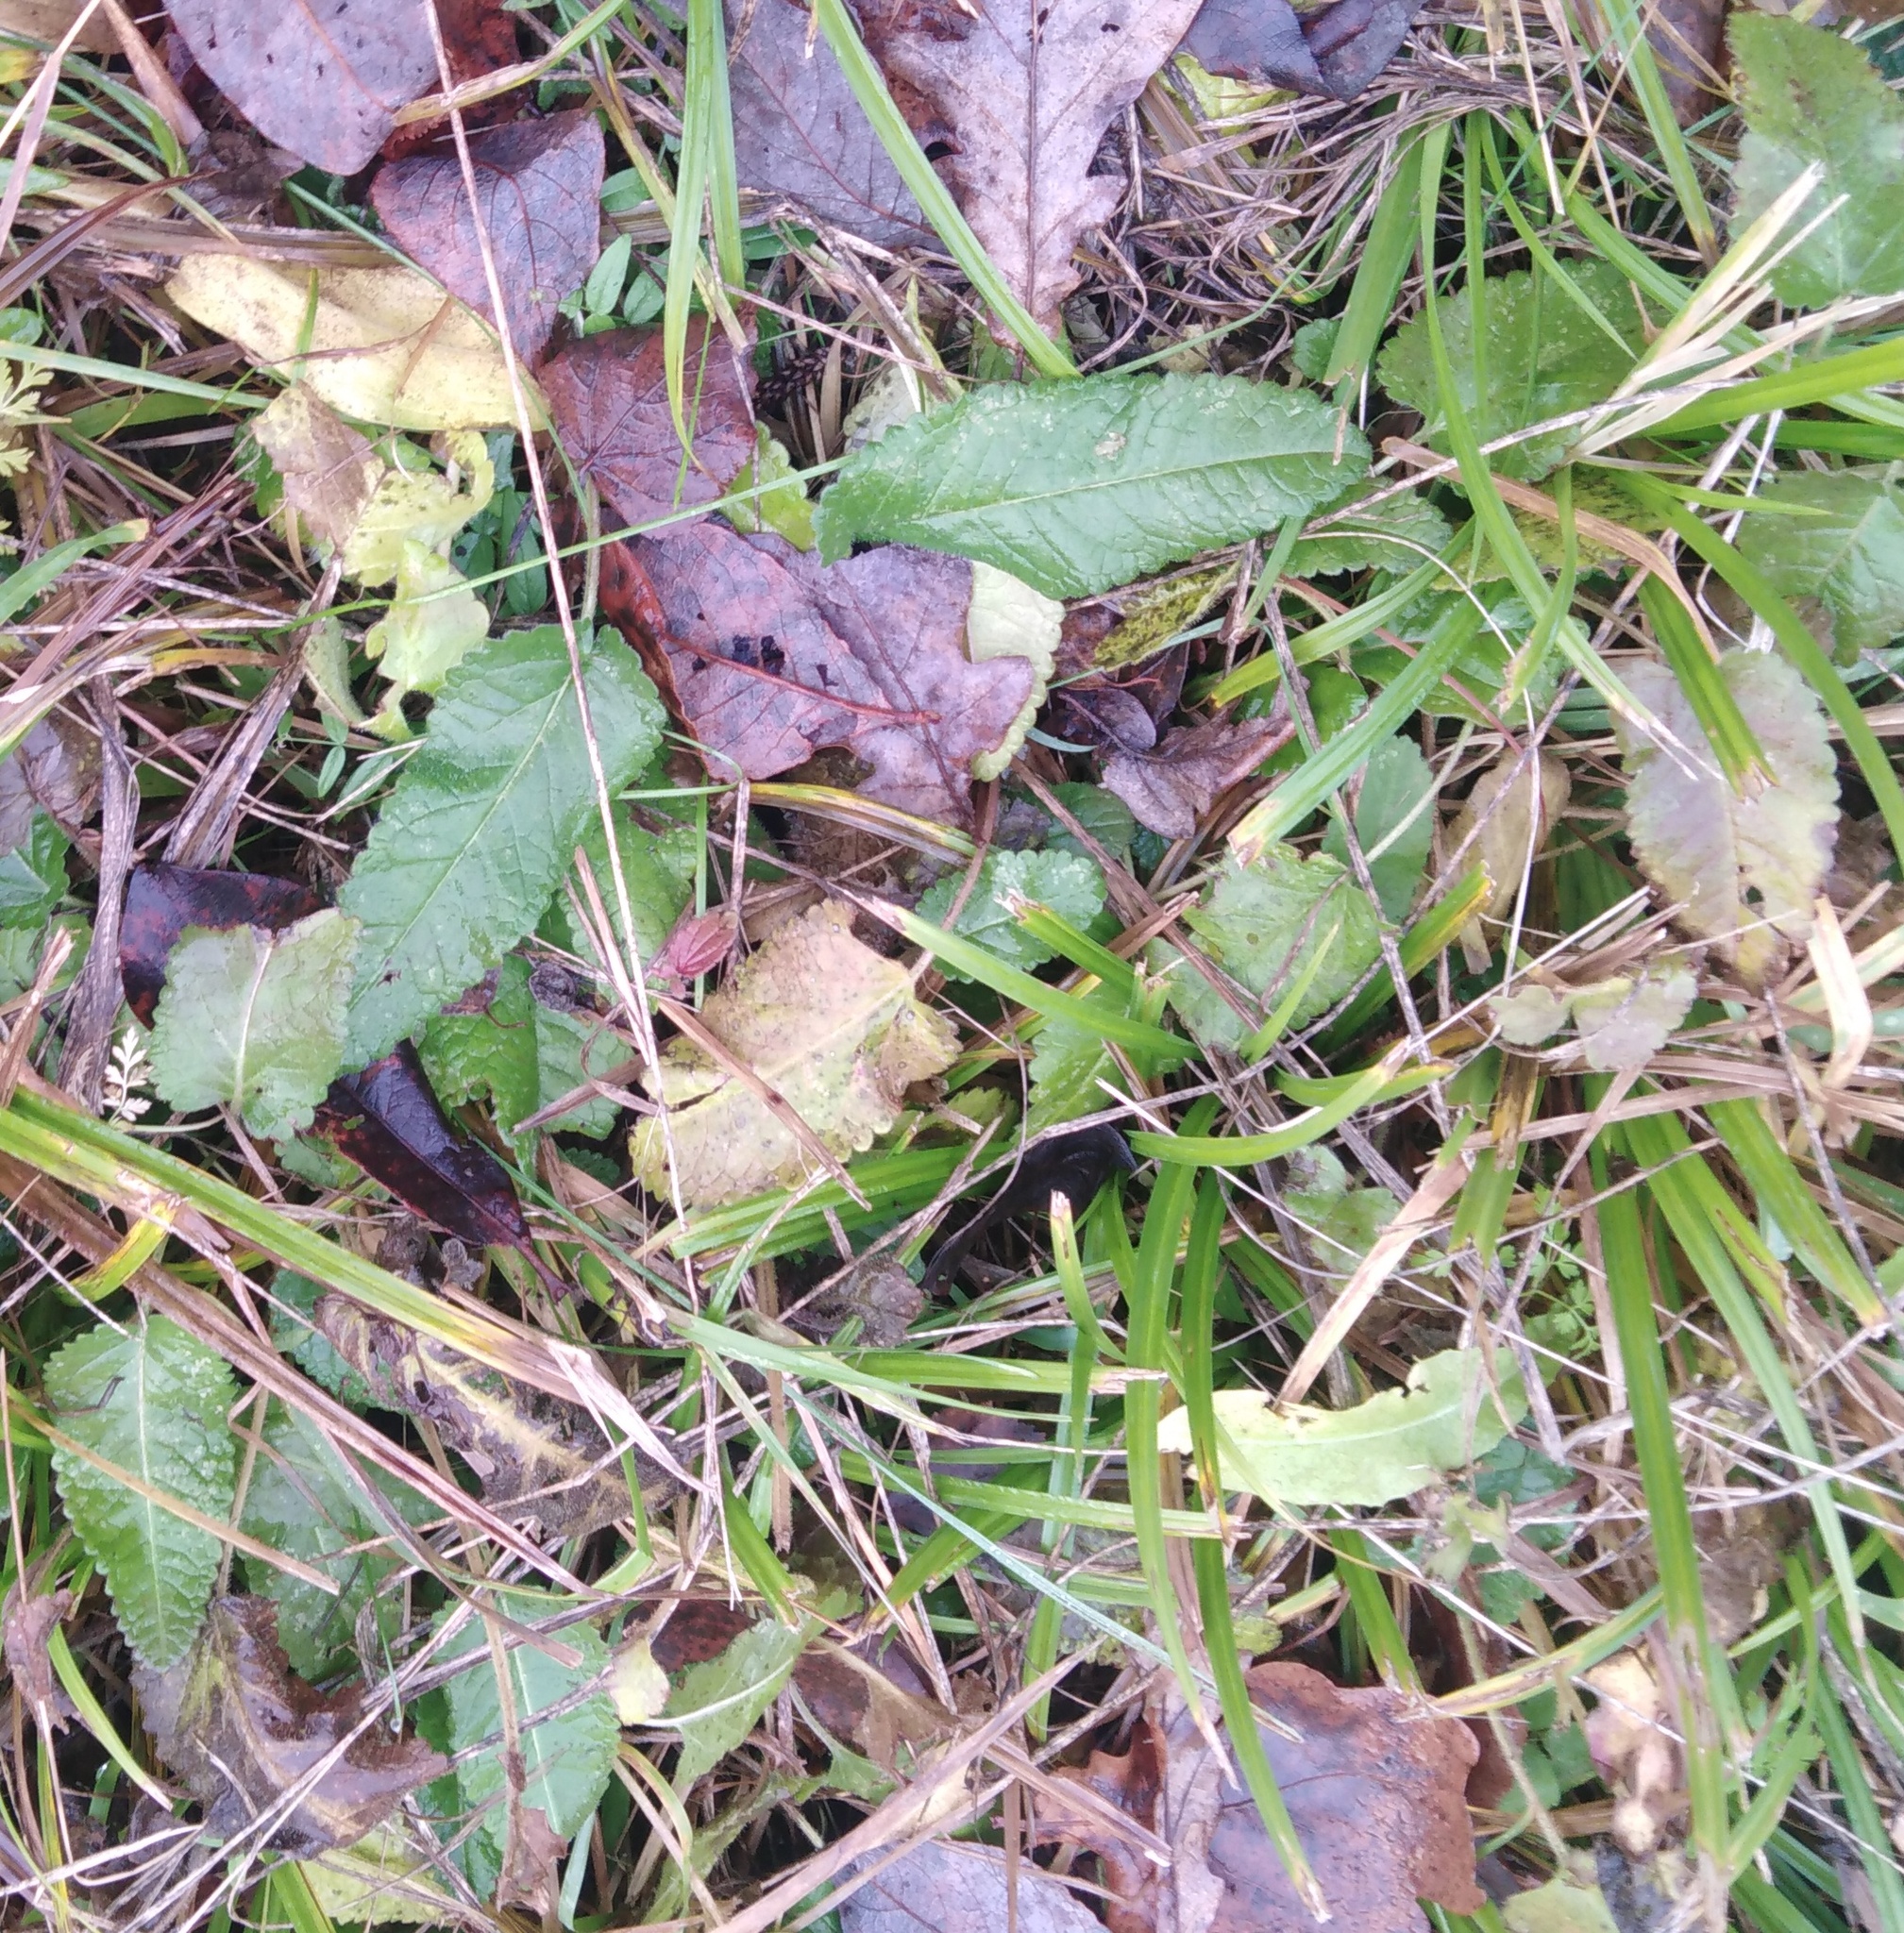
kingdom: Plantae
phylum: Tracheophyta
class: Magnoliopsida
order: Lamiales
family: Lamiaceae
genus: Betonica
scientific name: Betonica officinalis
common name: Bishop's-wort
